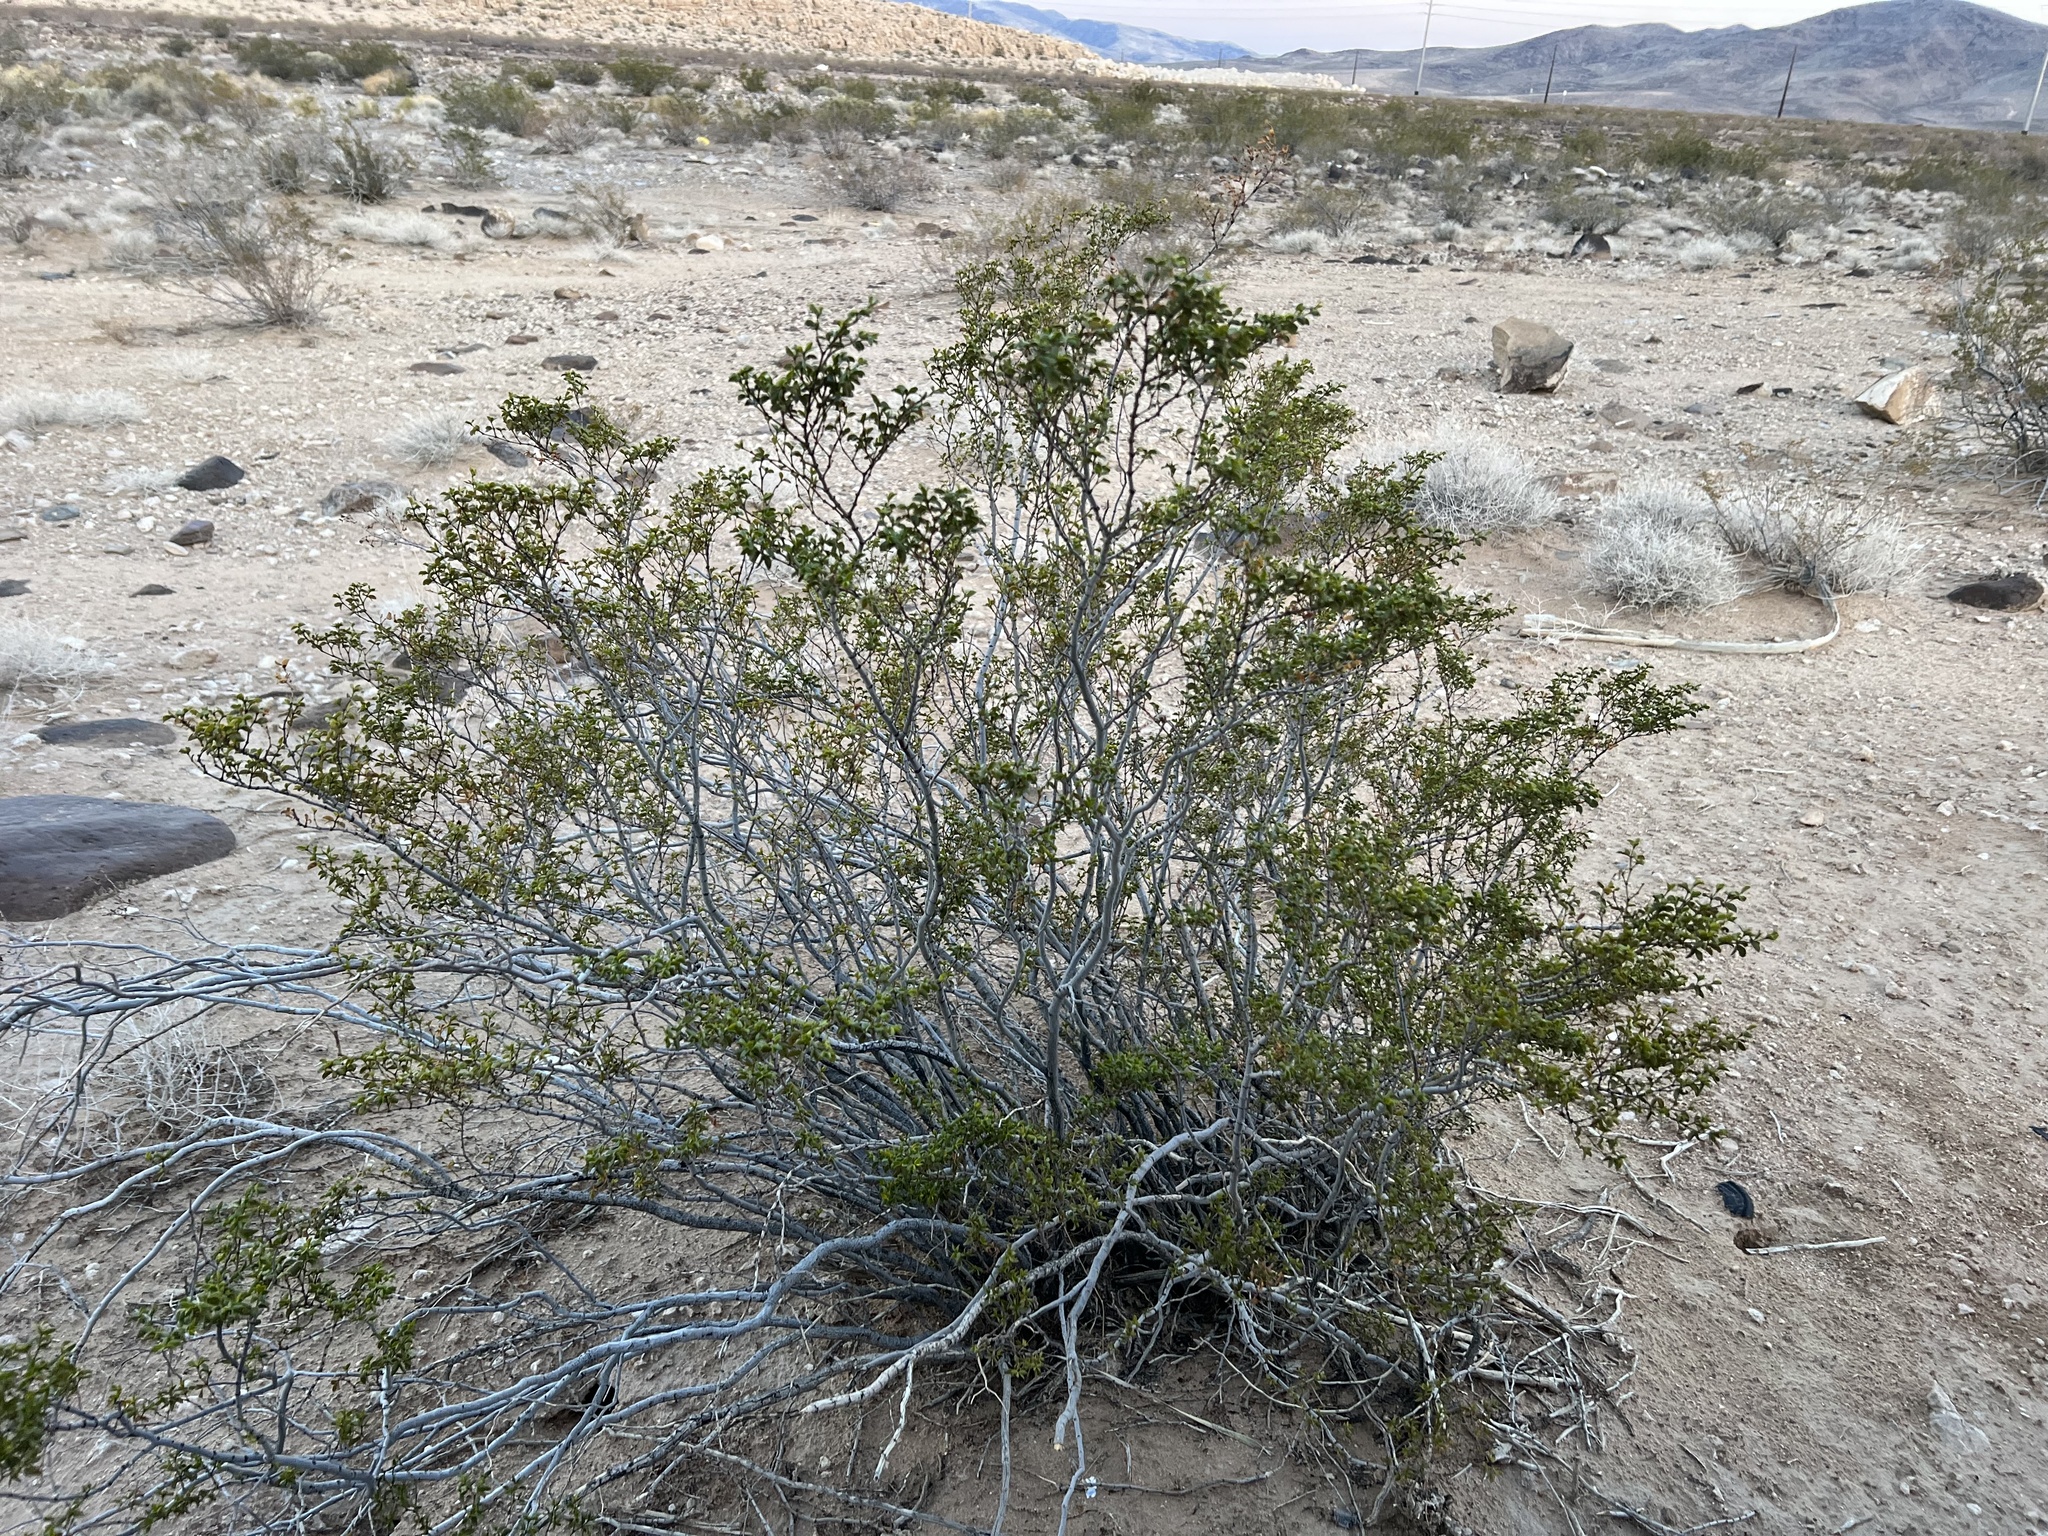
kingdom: Plantae
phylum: Tracheophyta
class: Magnoliopsida
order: Zygophyllales
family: Zygophyllaceae
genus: Larrea
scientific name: Larrea tridentata
